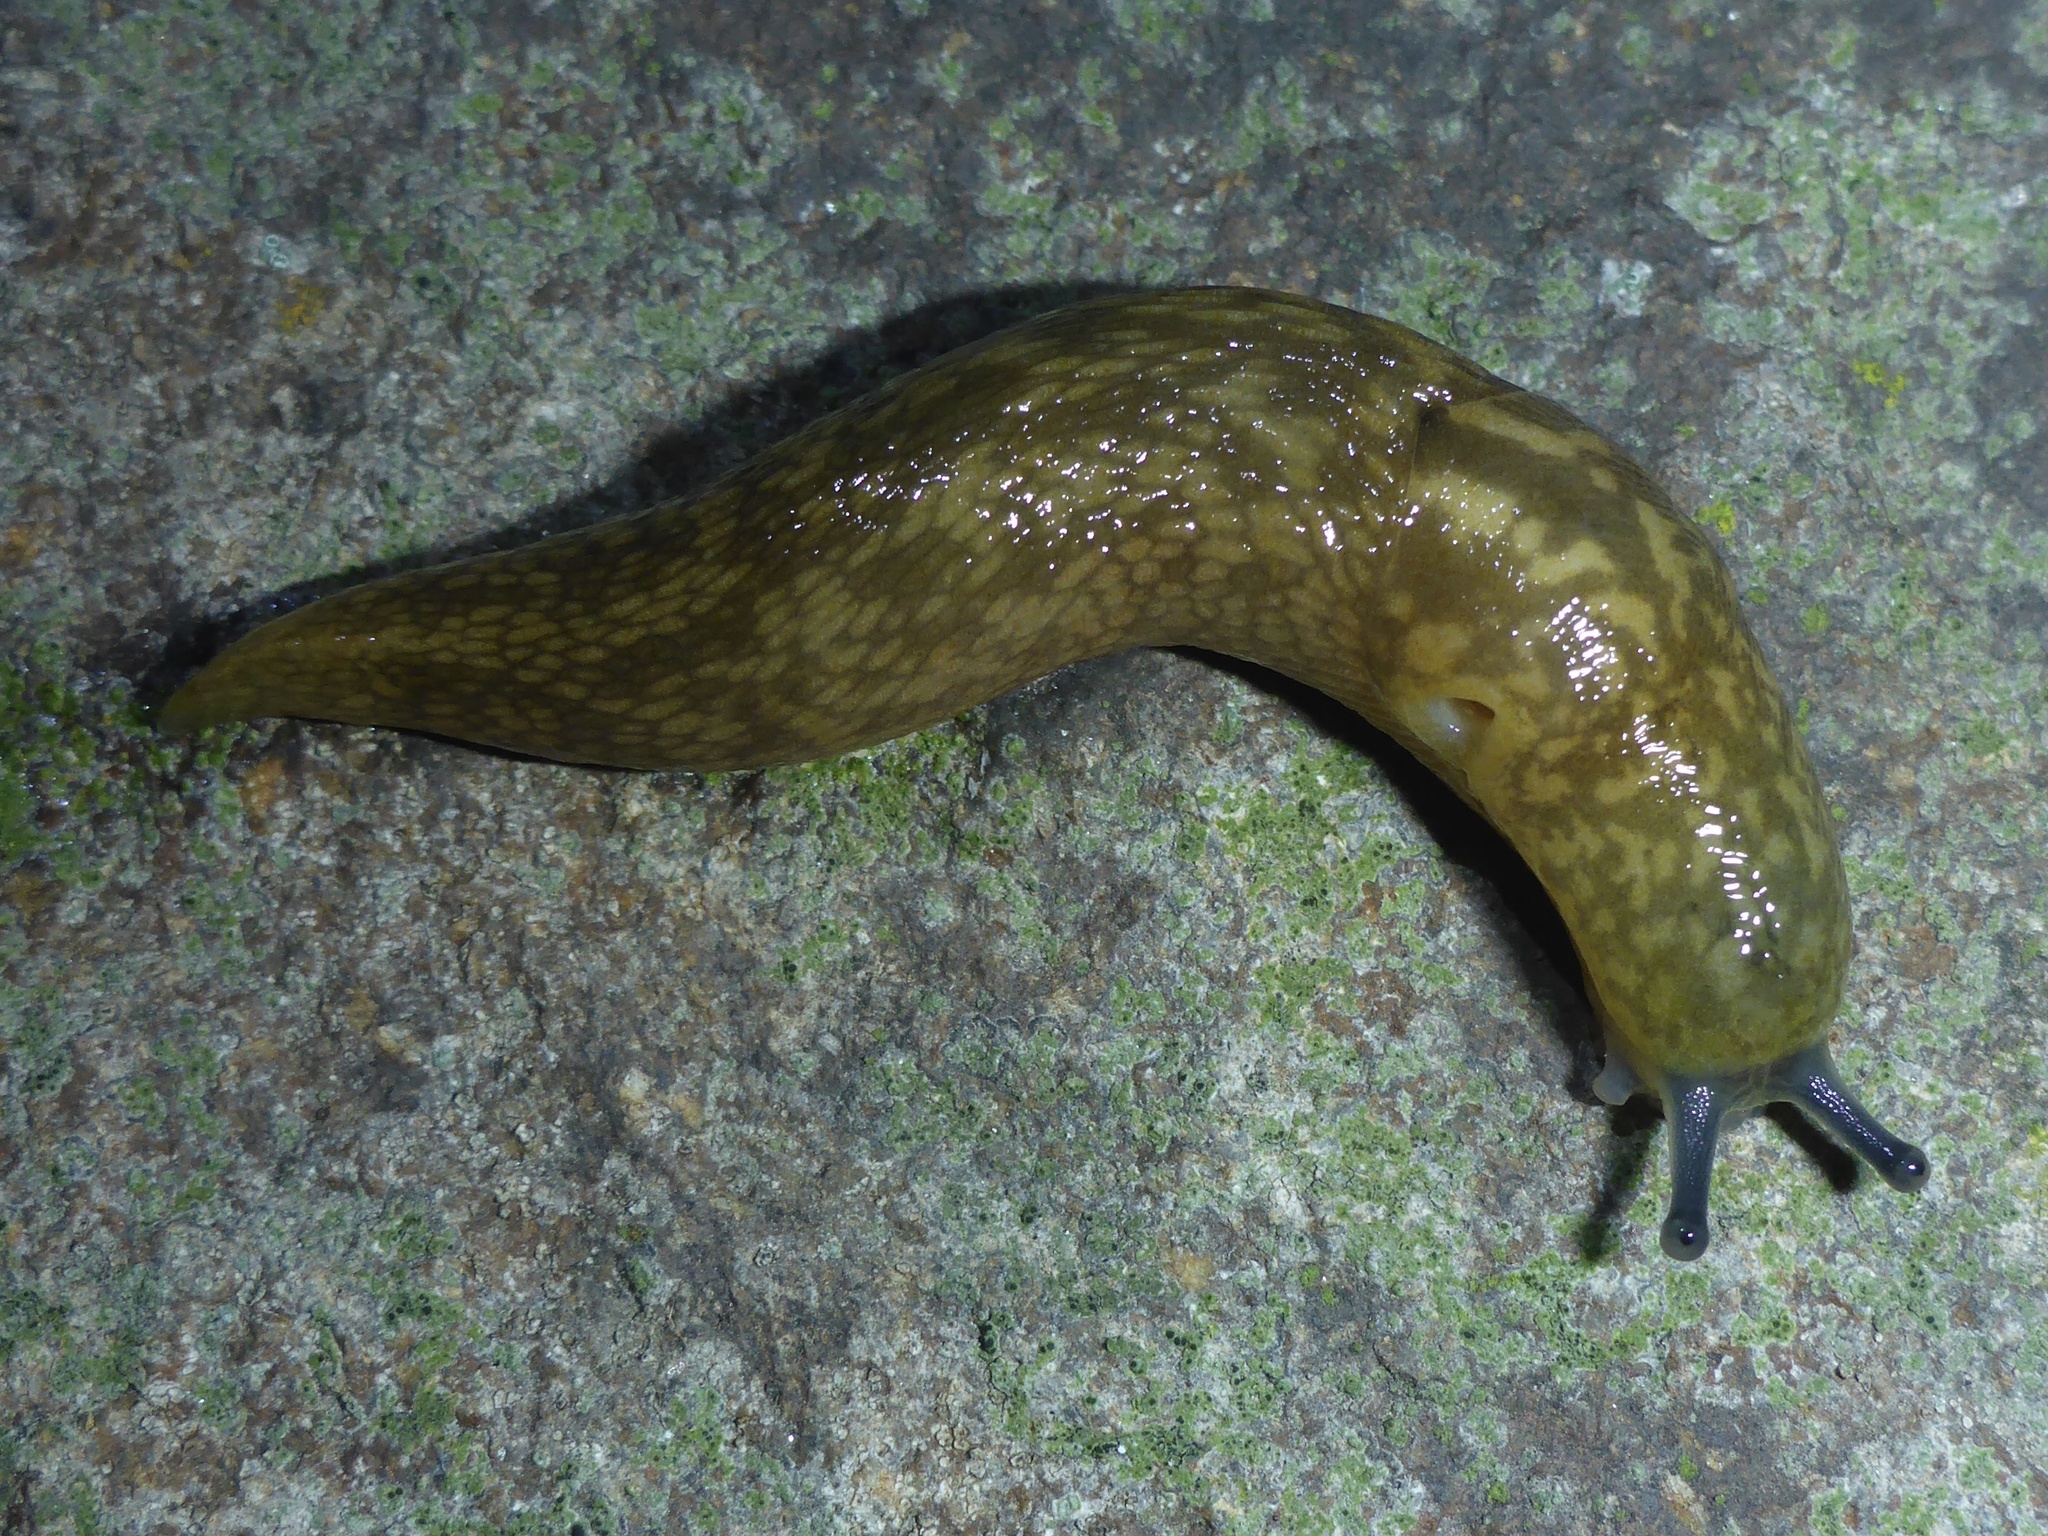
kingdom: Animalia
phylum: Mollusca
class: Gastropoda
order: Stylommatophora
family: Limacidae
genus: Limacus
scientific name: Limacus flavus
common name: Yellow gardenslug
